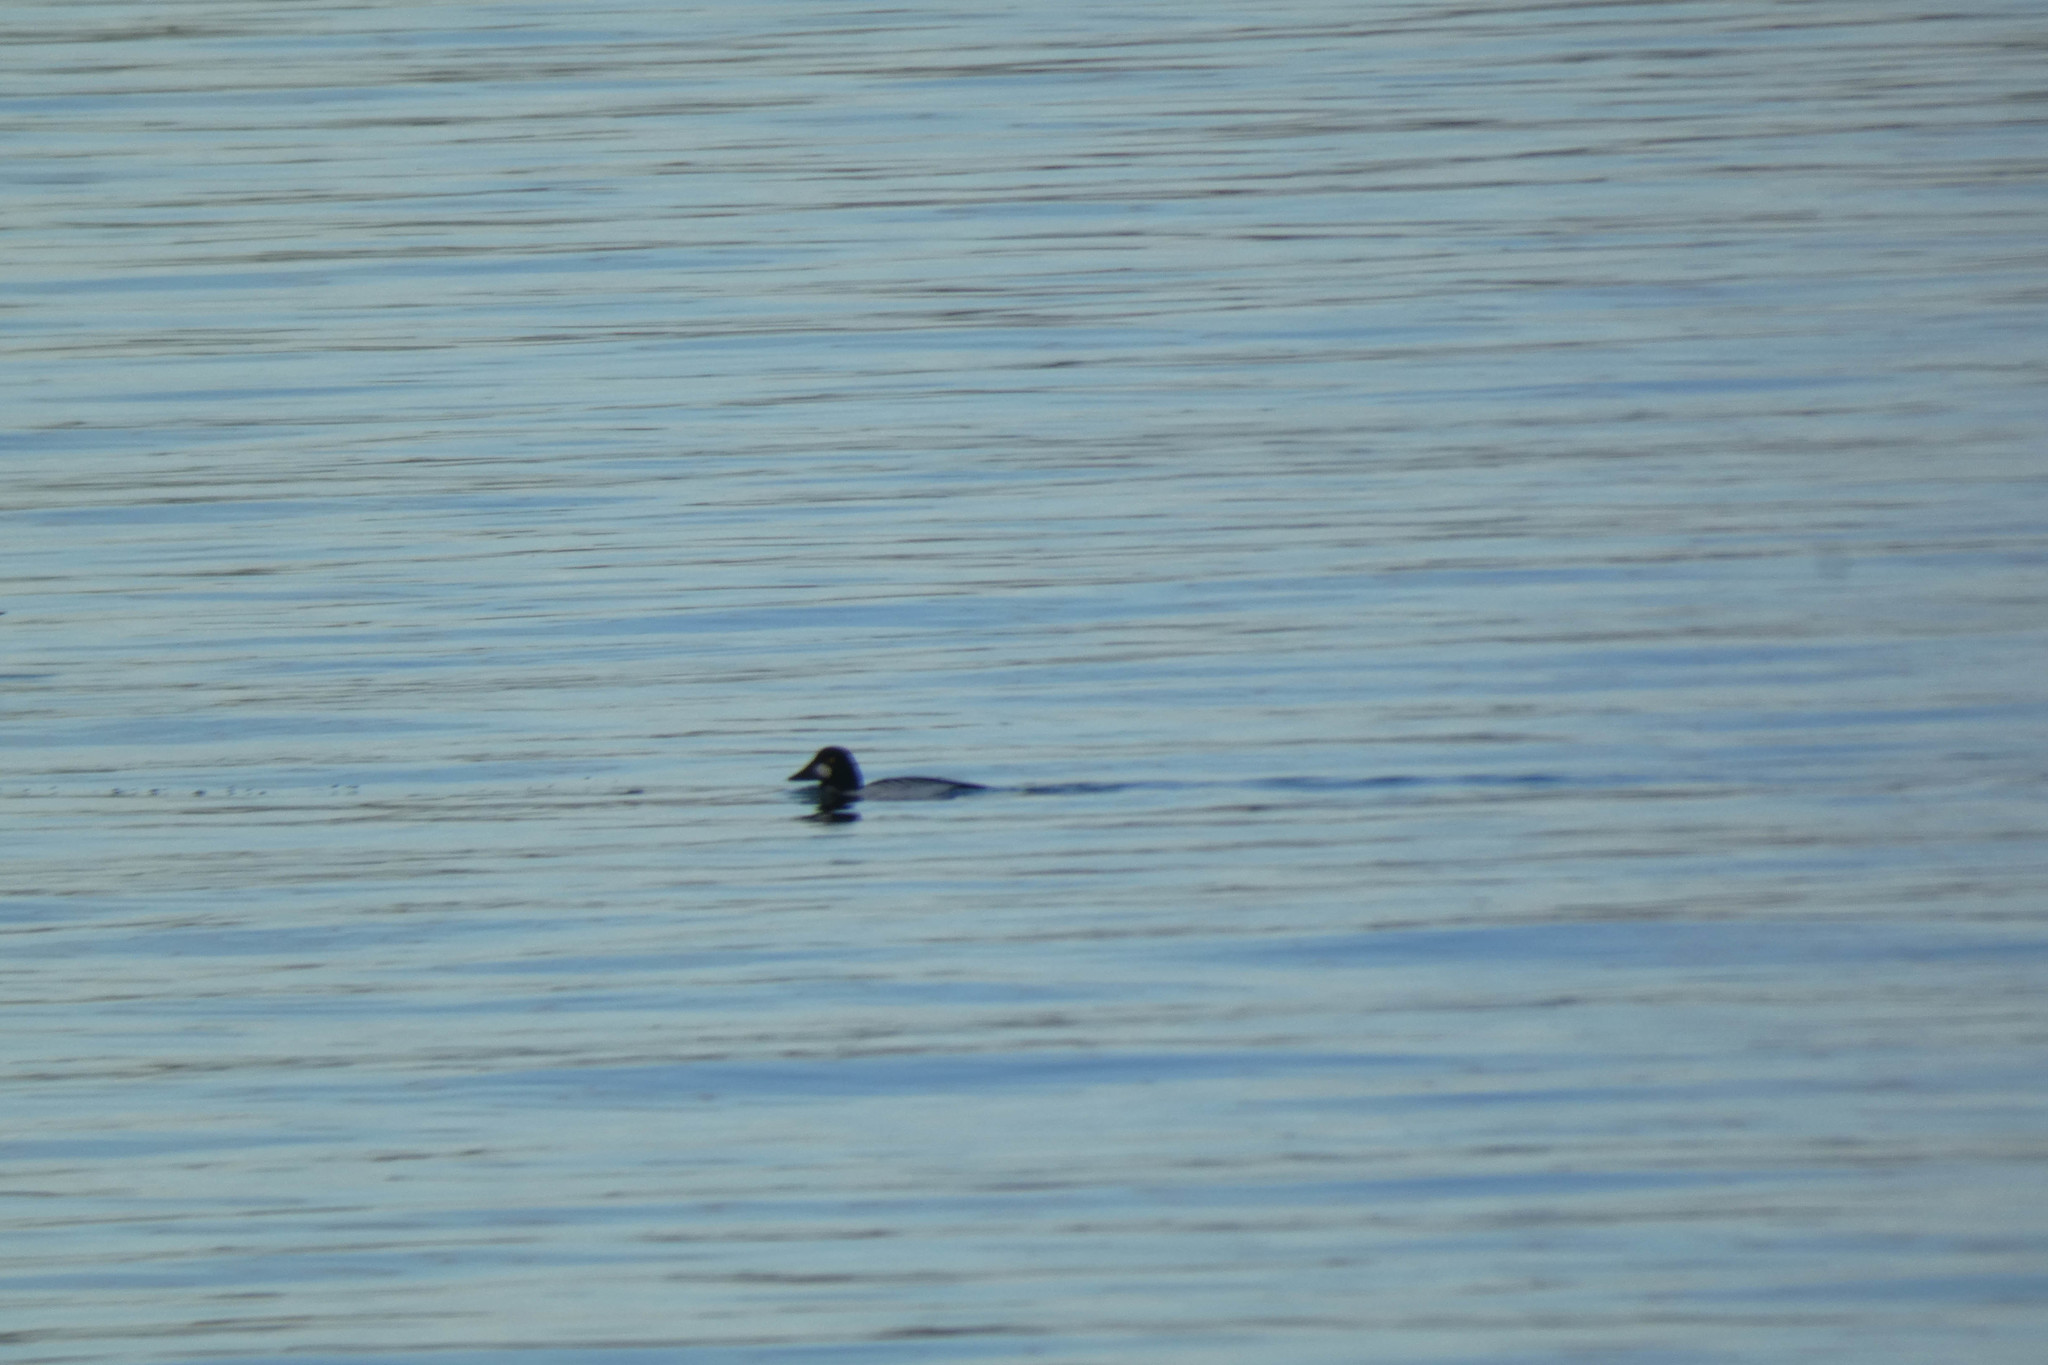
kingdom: Animalia
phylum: Chordata
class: Aves
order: Anseriformes
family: Anatidae
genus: Bucephala
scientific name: Bucephala clangula
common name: Common goldeneye
